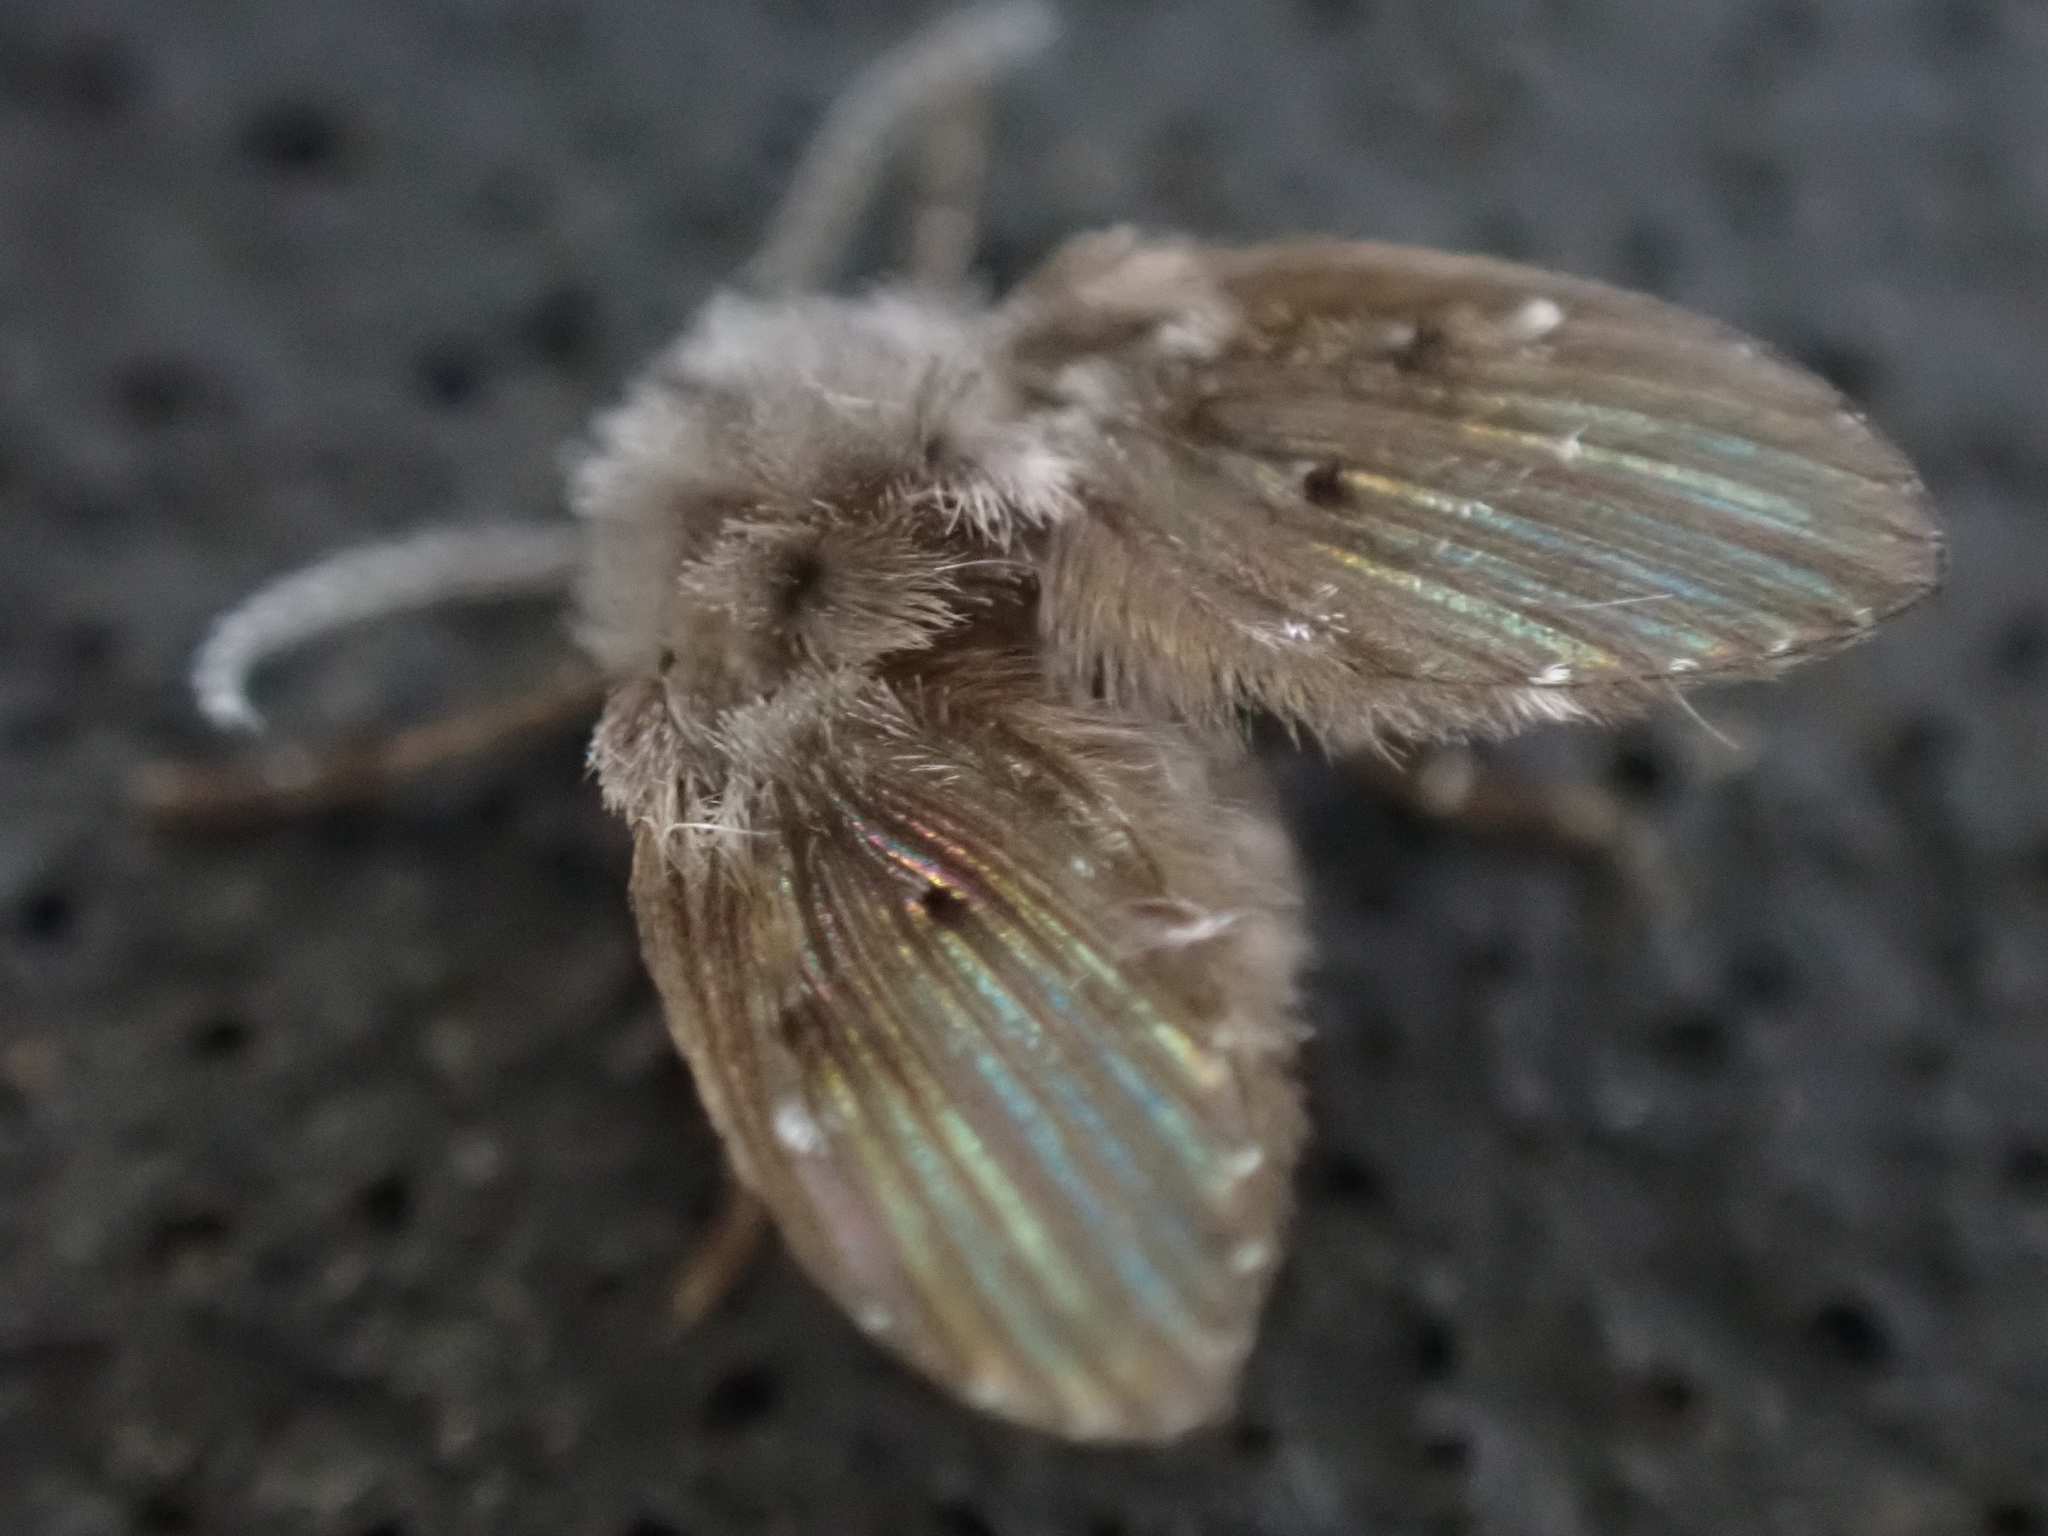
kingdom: Animalia
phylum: Arthropoda
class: Insecta
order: Diptera
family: Psychodidae
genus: Clogmia
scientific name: Clogmia albipunctatus
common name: White-spotted moth fly
